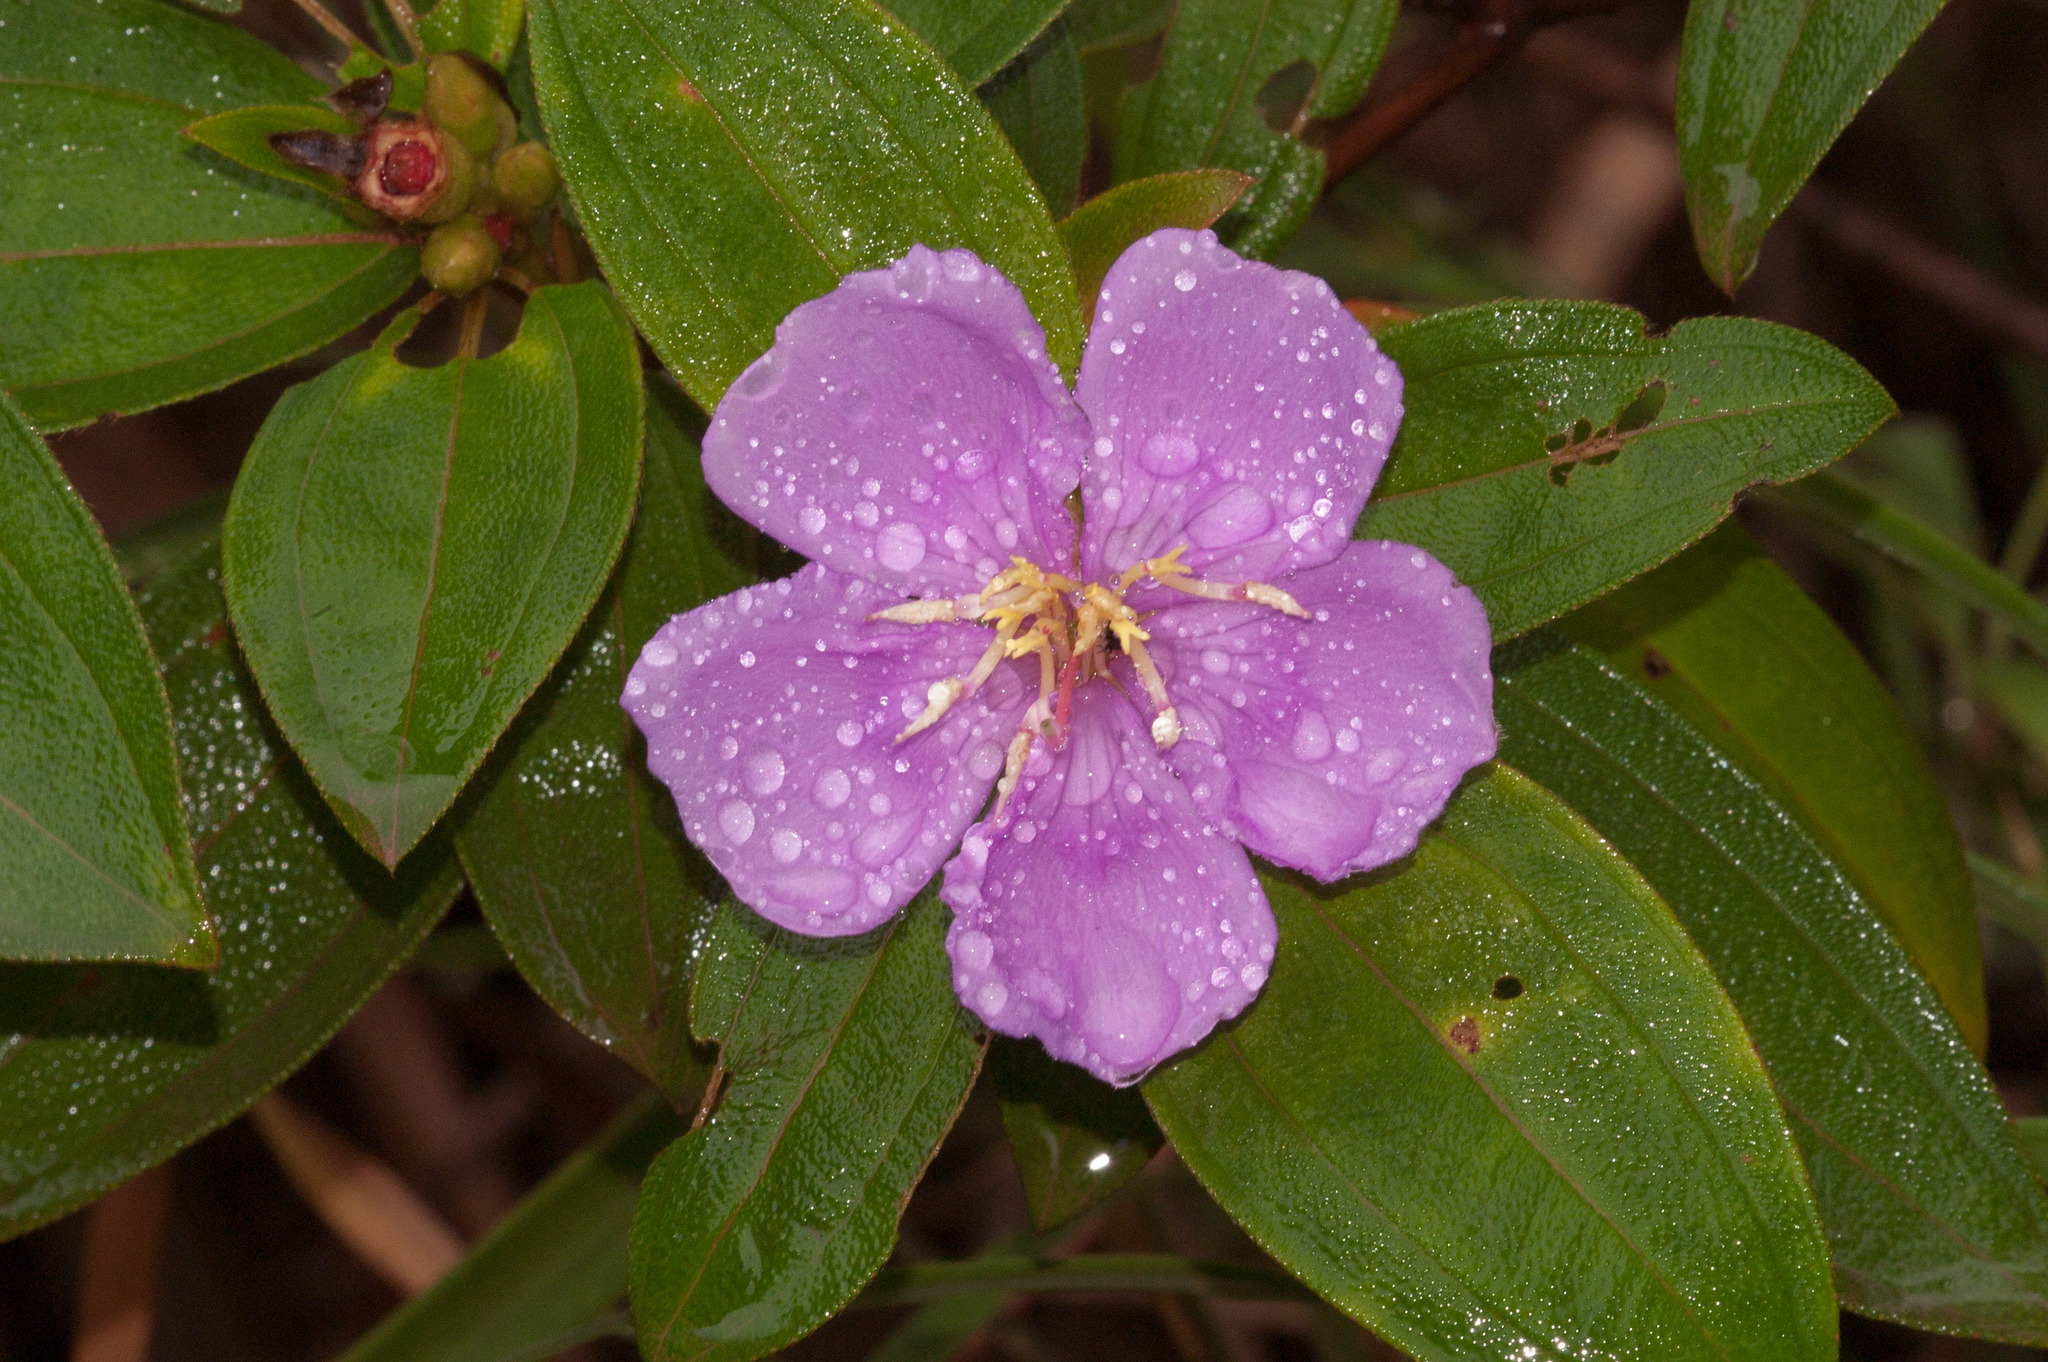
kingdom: Plantae
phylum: Tracheophyta
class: Magnoliopsida
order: Myrtales
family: Melastomataceae
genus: Melastoma
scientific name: Melastoma malabathricum
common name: Indian-rhododendron
